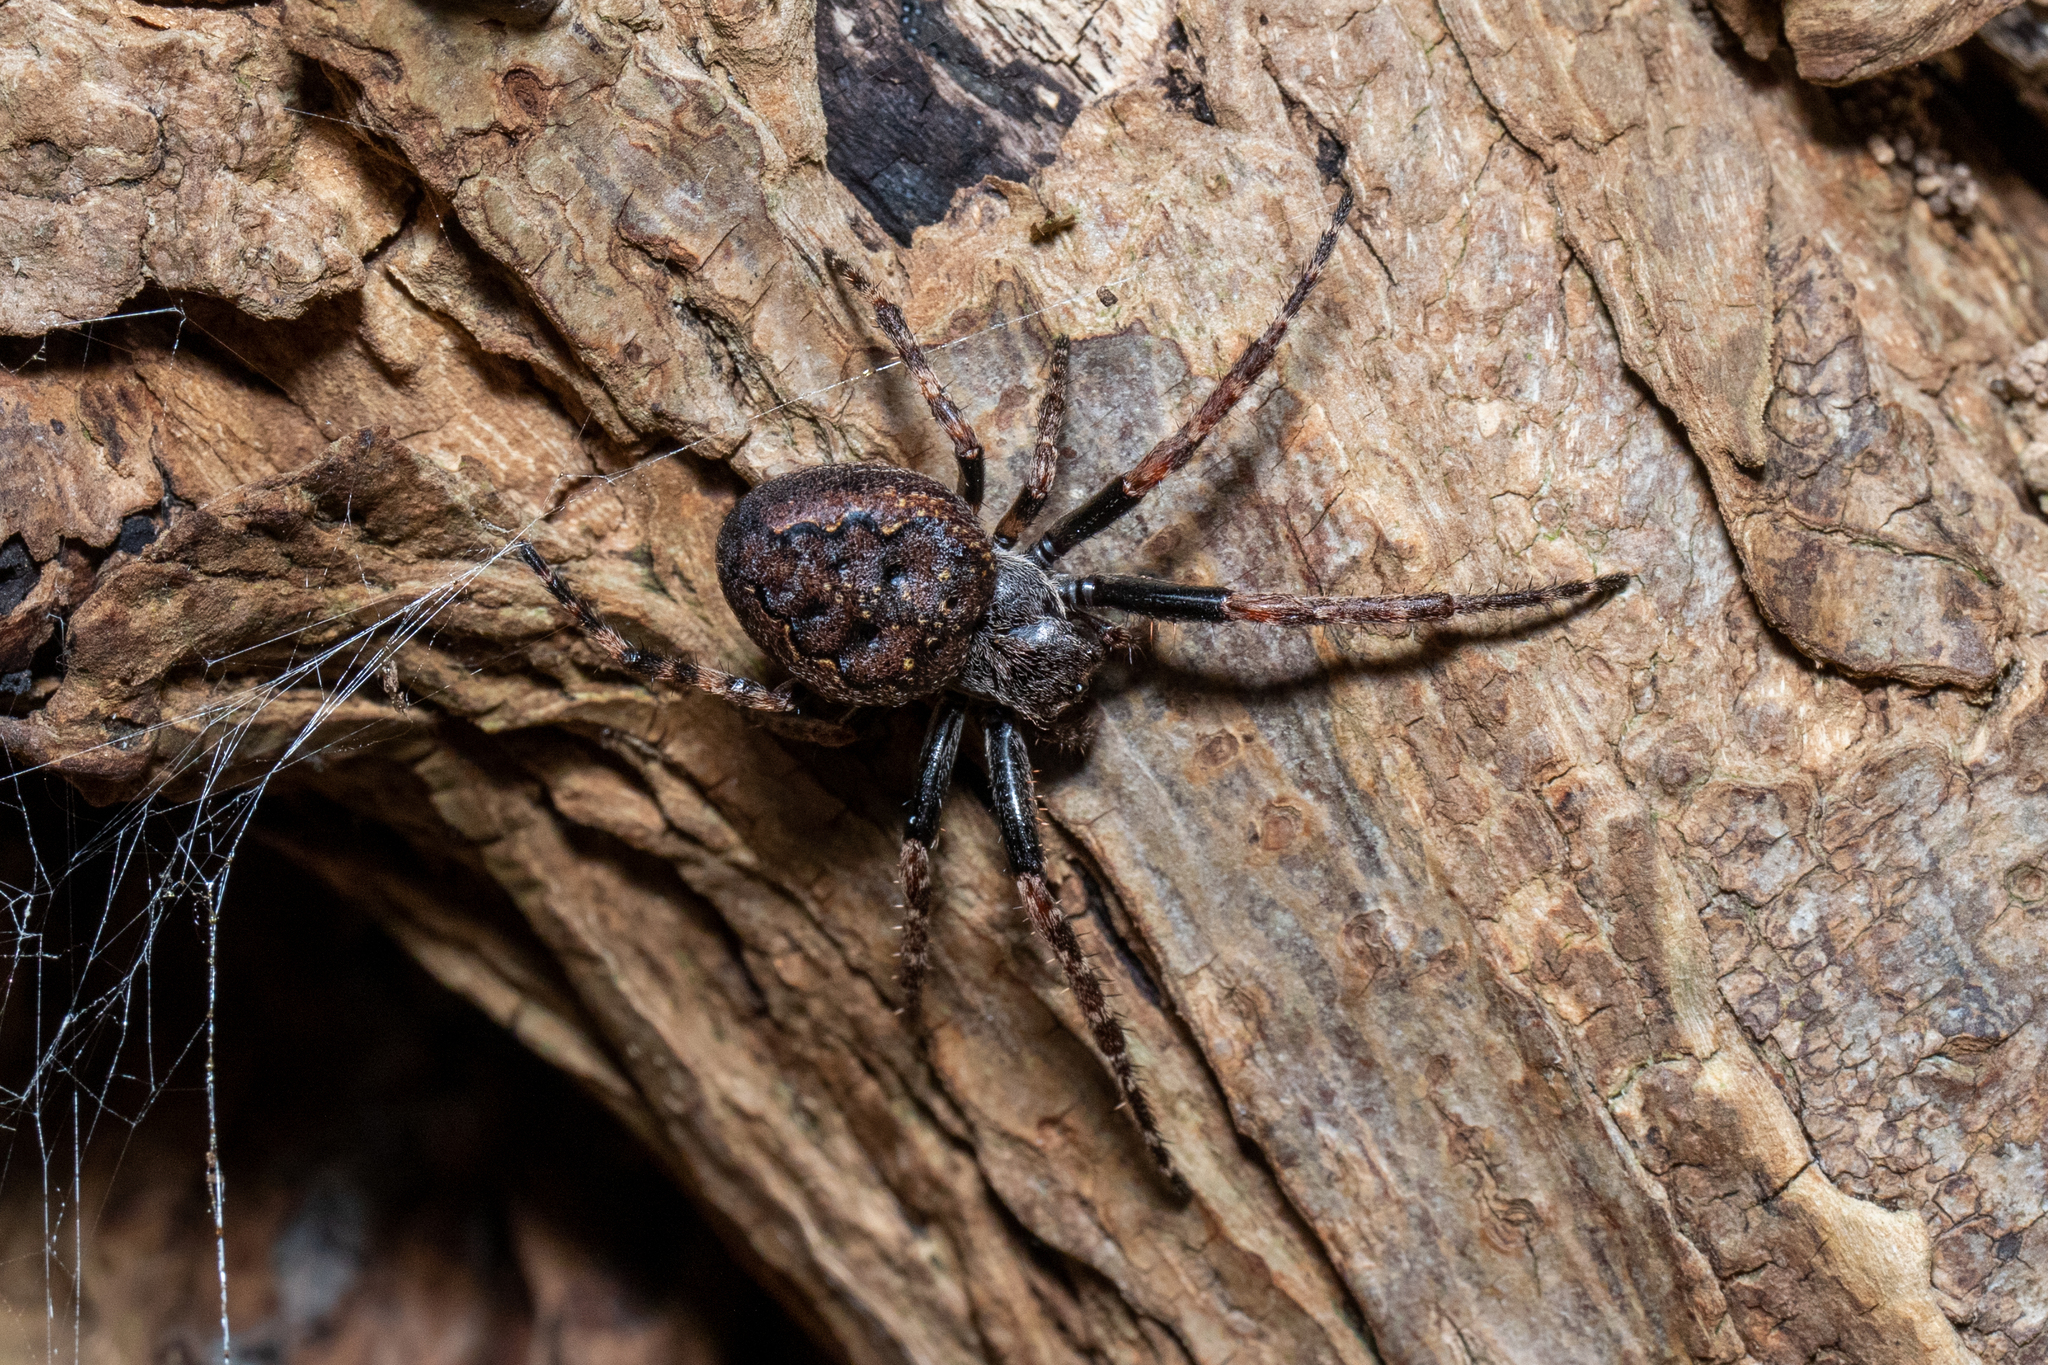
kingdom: Animalia
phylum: Arthropoda
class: Arachnida
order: Araneae
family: Araneidae
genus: Nuctenea
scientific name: Nuctenea umbratica
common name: Toad spider
